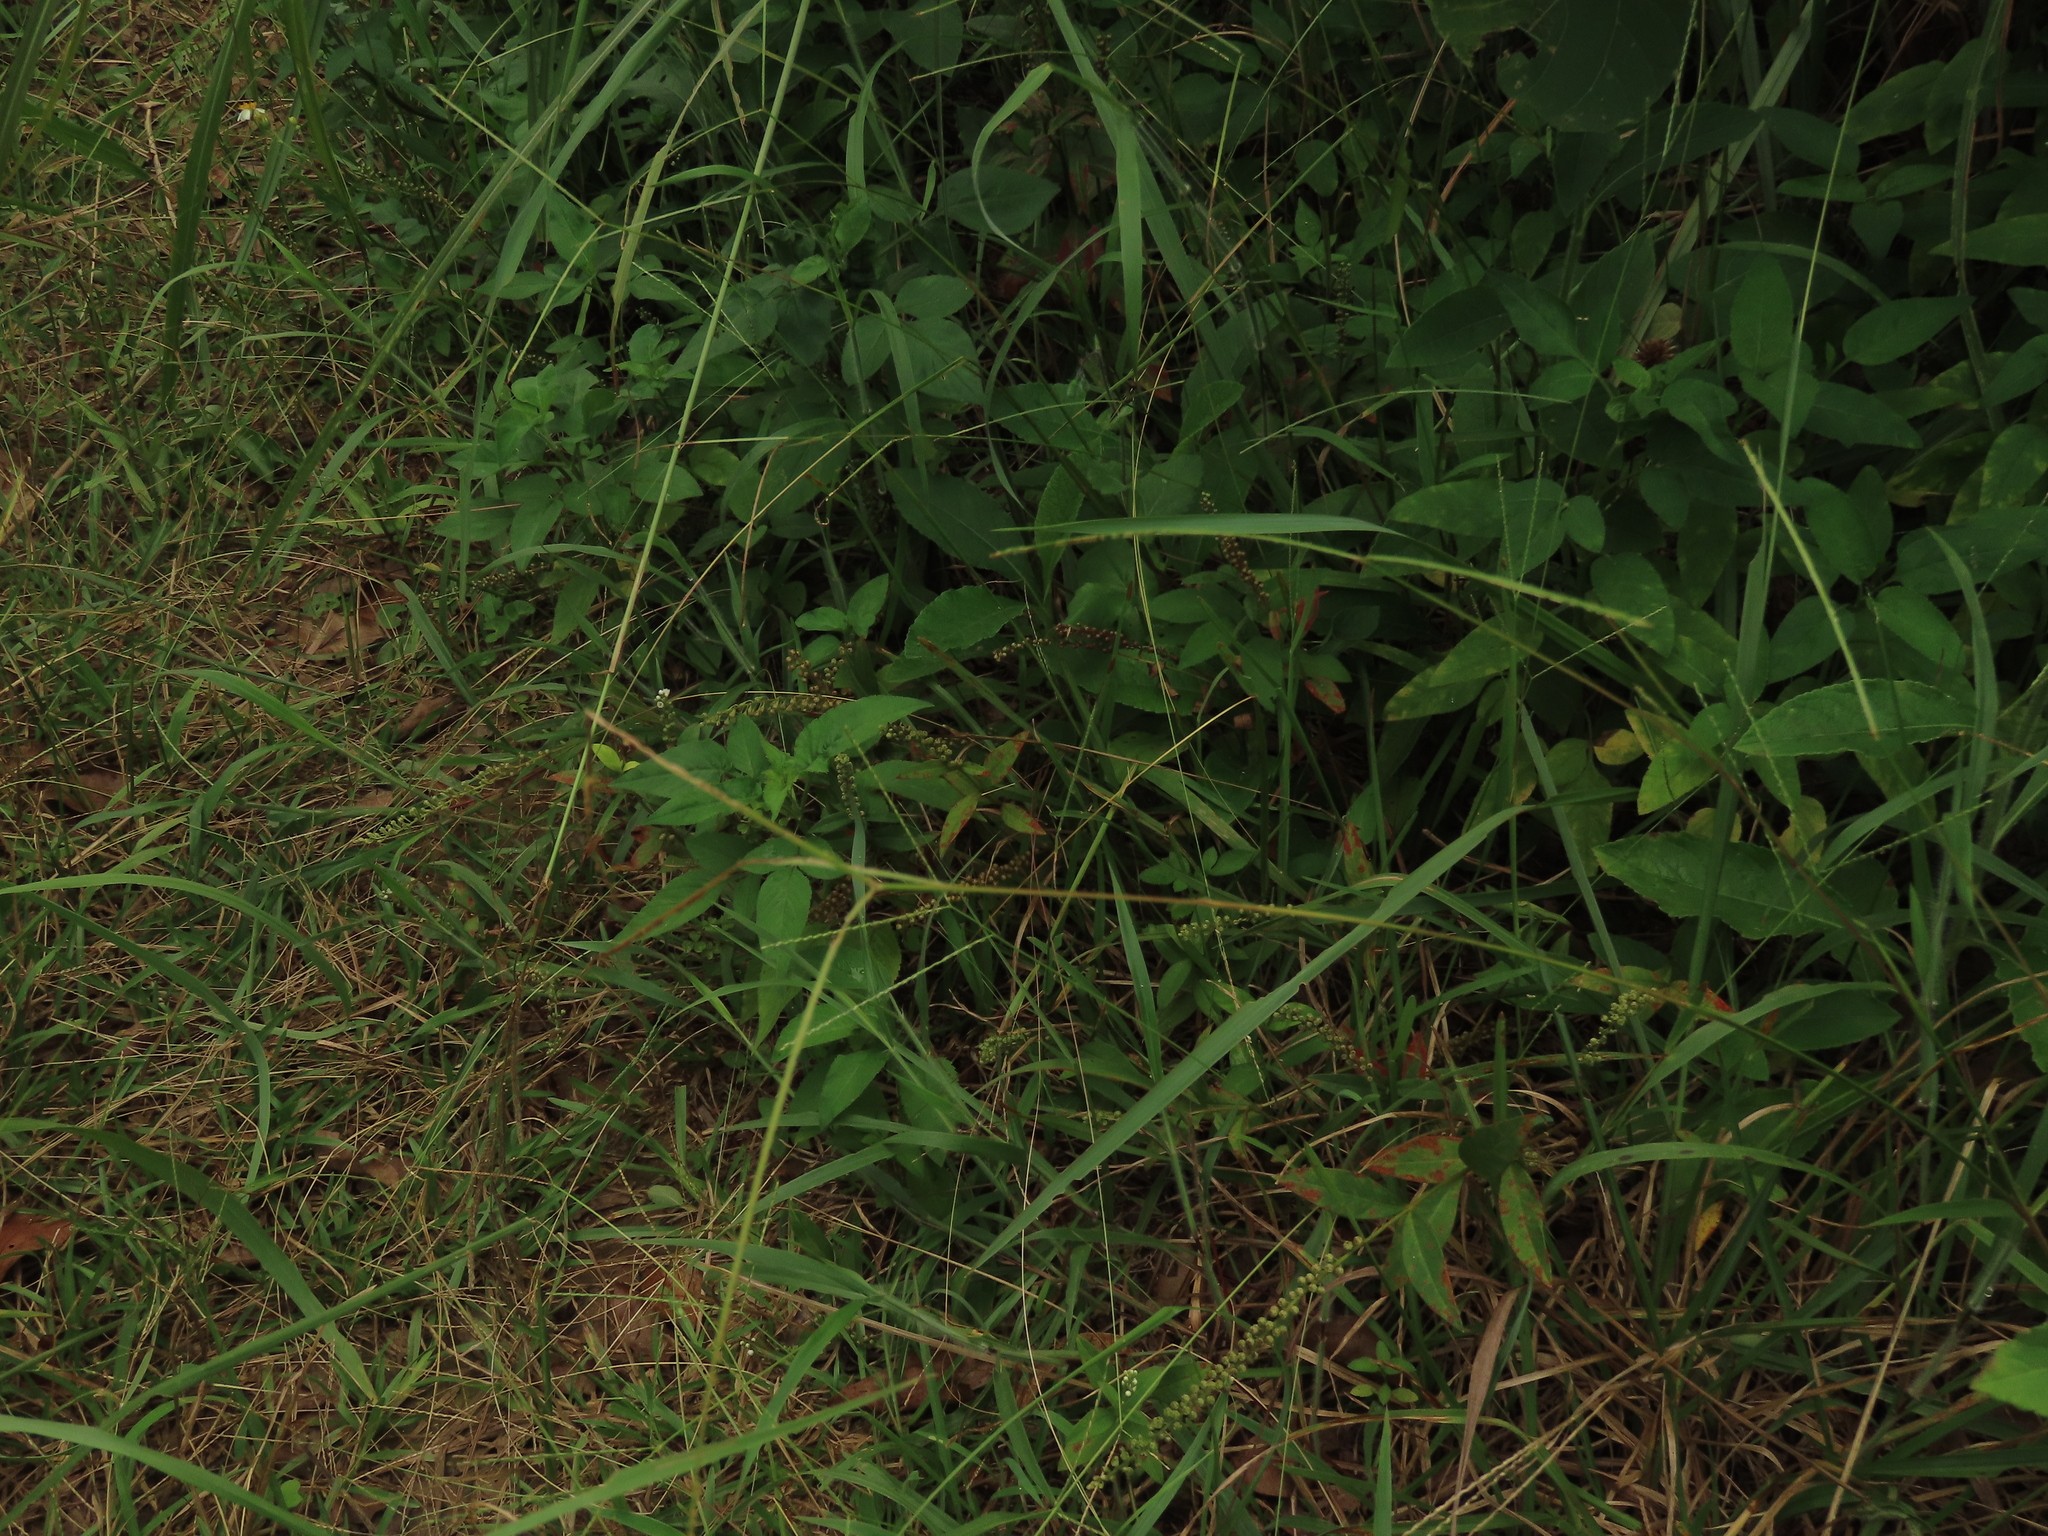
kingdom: Plantae
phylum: Tracheophyta
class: Magnoliopsida
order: Ericales
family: Primulaceae
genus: Lysimachia
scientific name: Lysimachia fortunei
